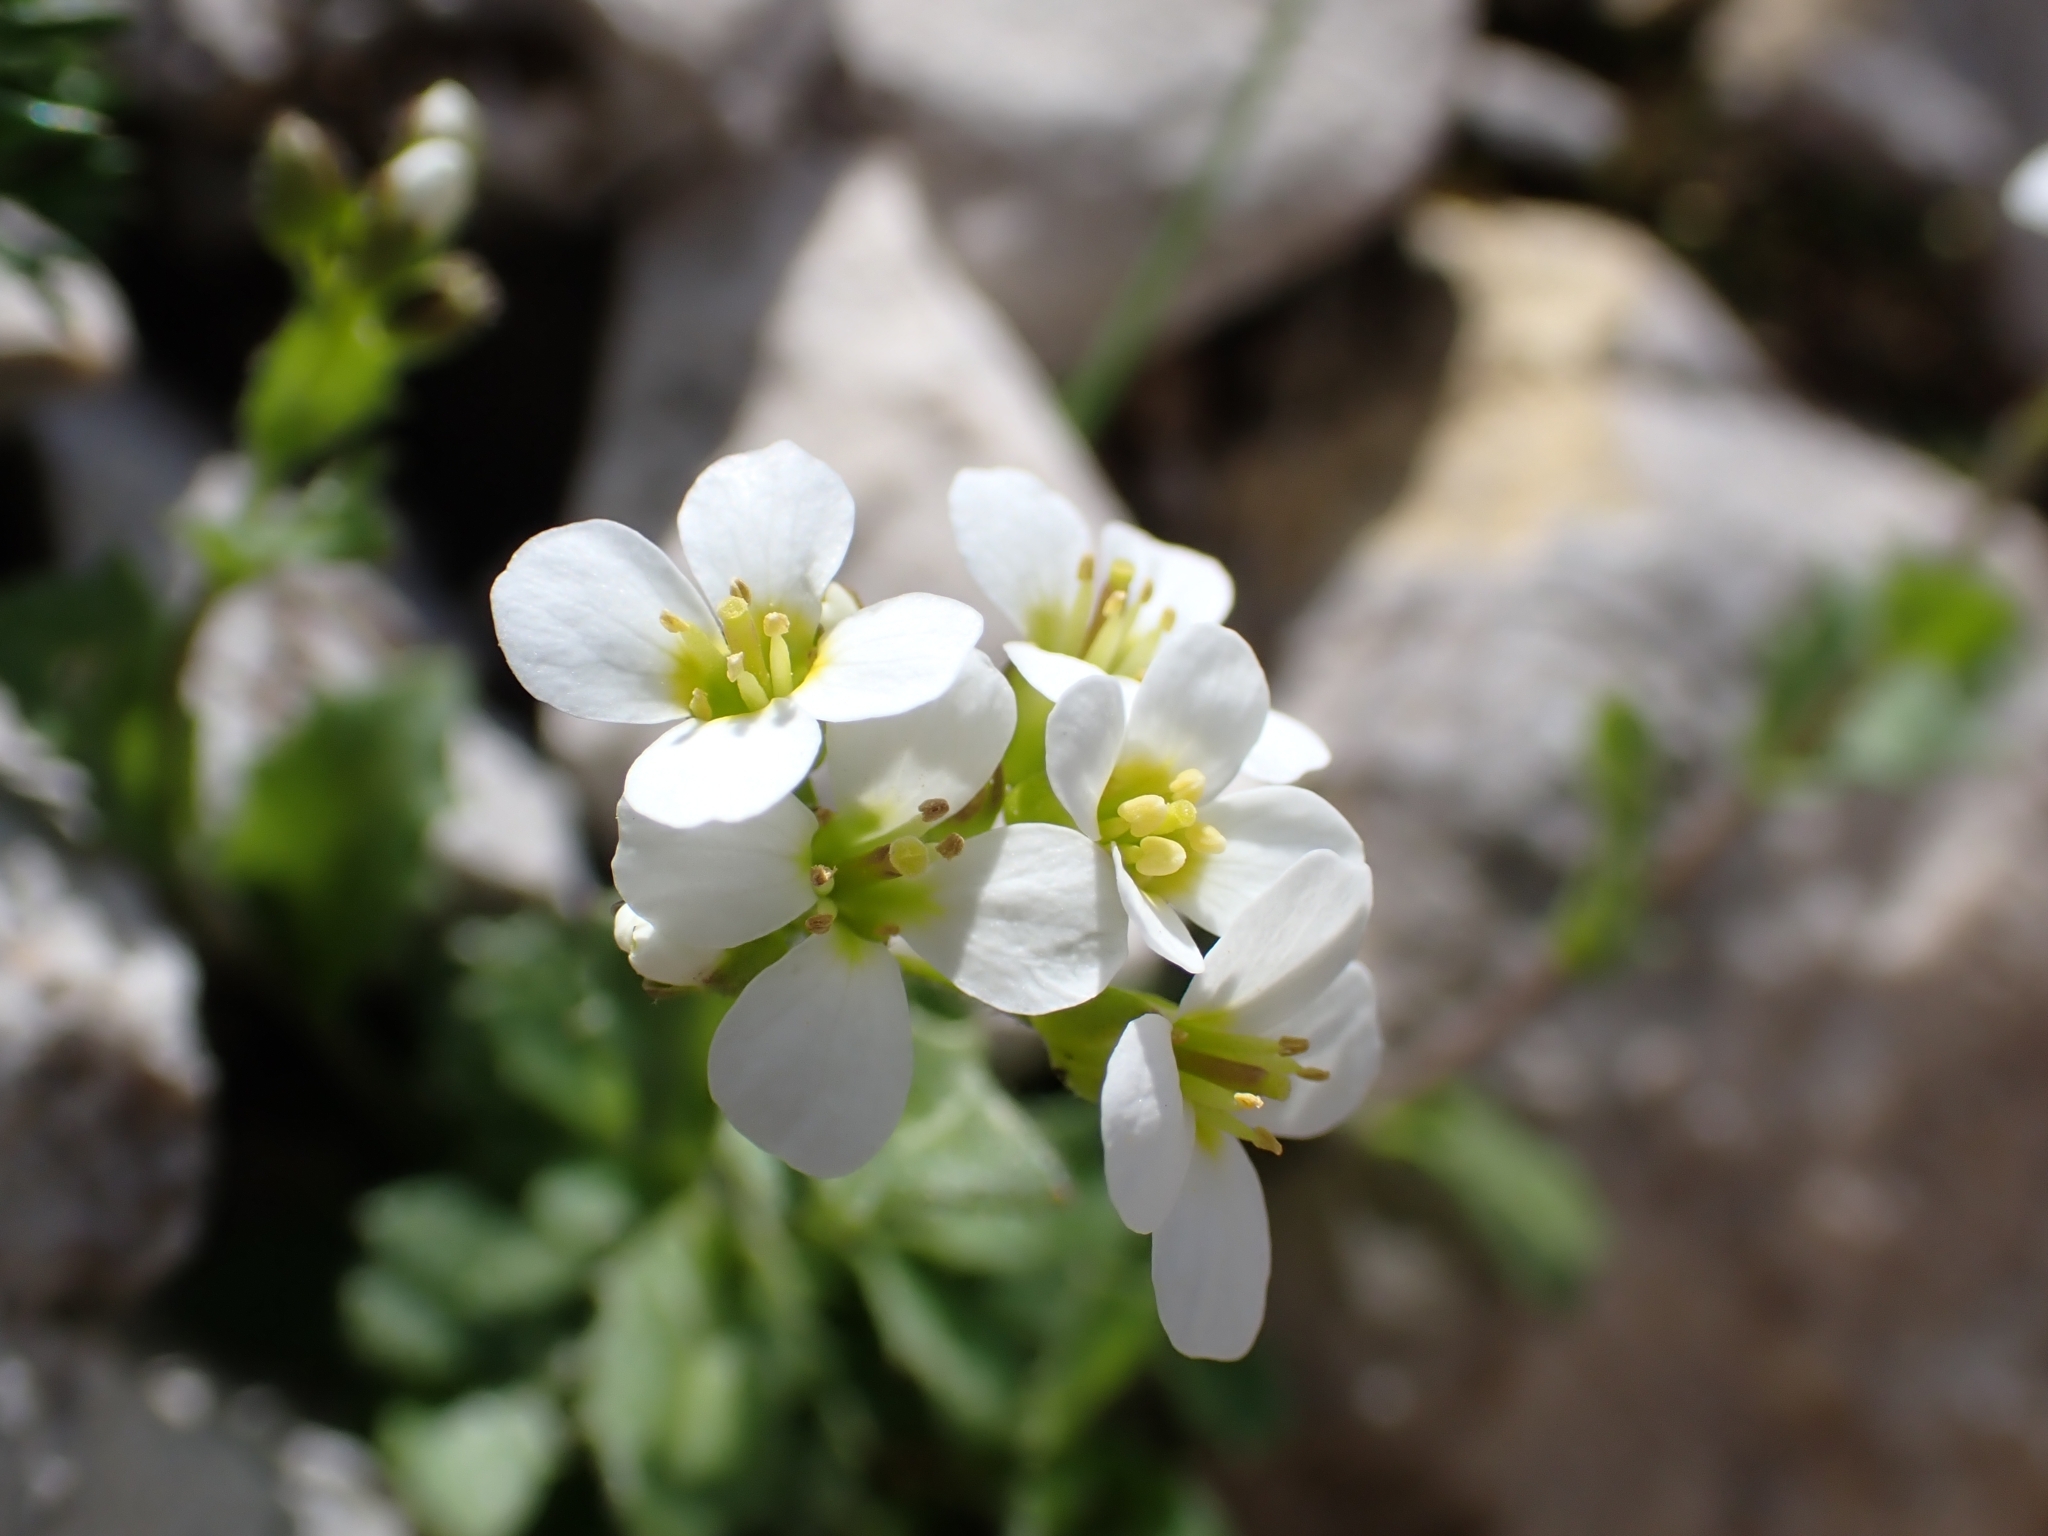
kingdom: Plantae
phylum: Tracheophyta
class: Magnoliopsida
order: Brassicales
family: Brassicaceae
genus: Arabis
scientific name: Arabis alpina
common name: Alpine rock-cress
